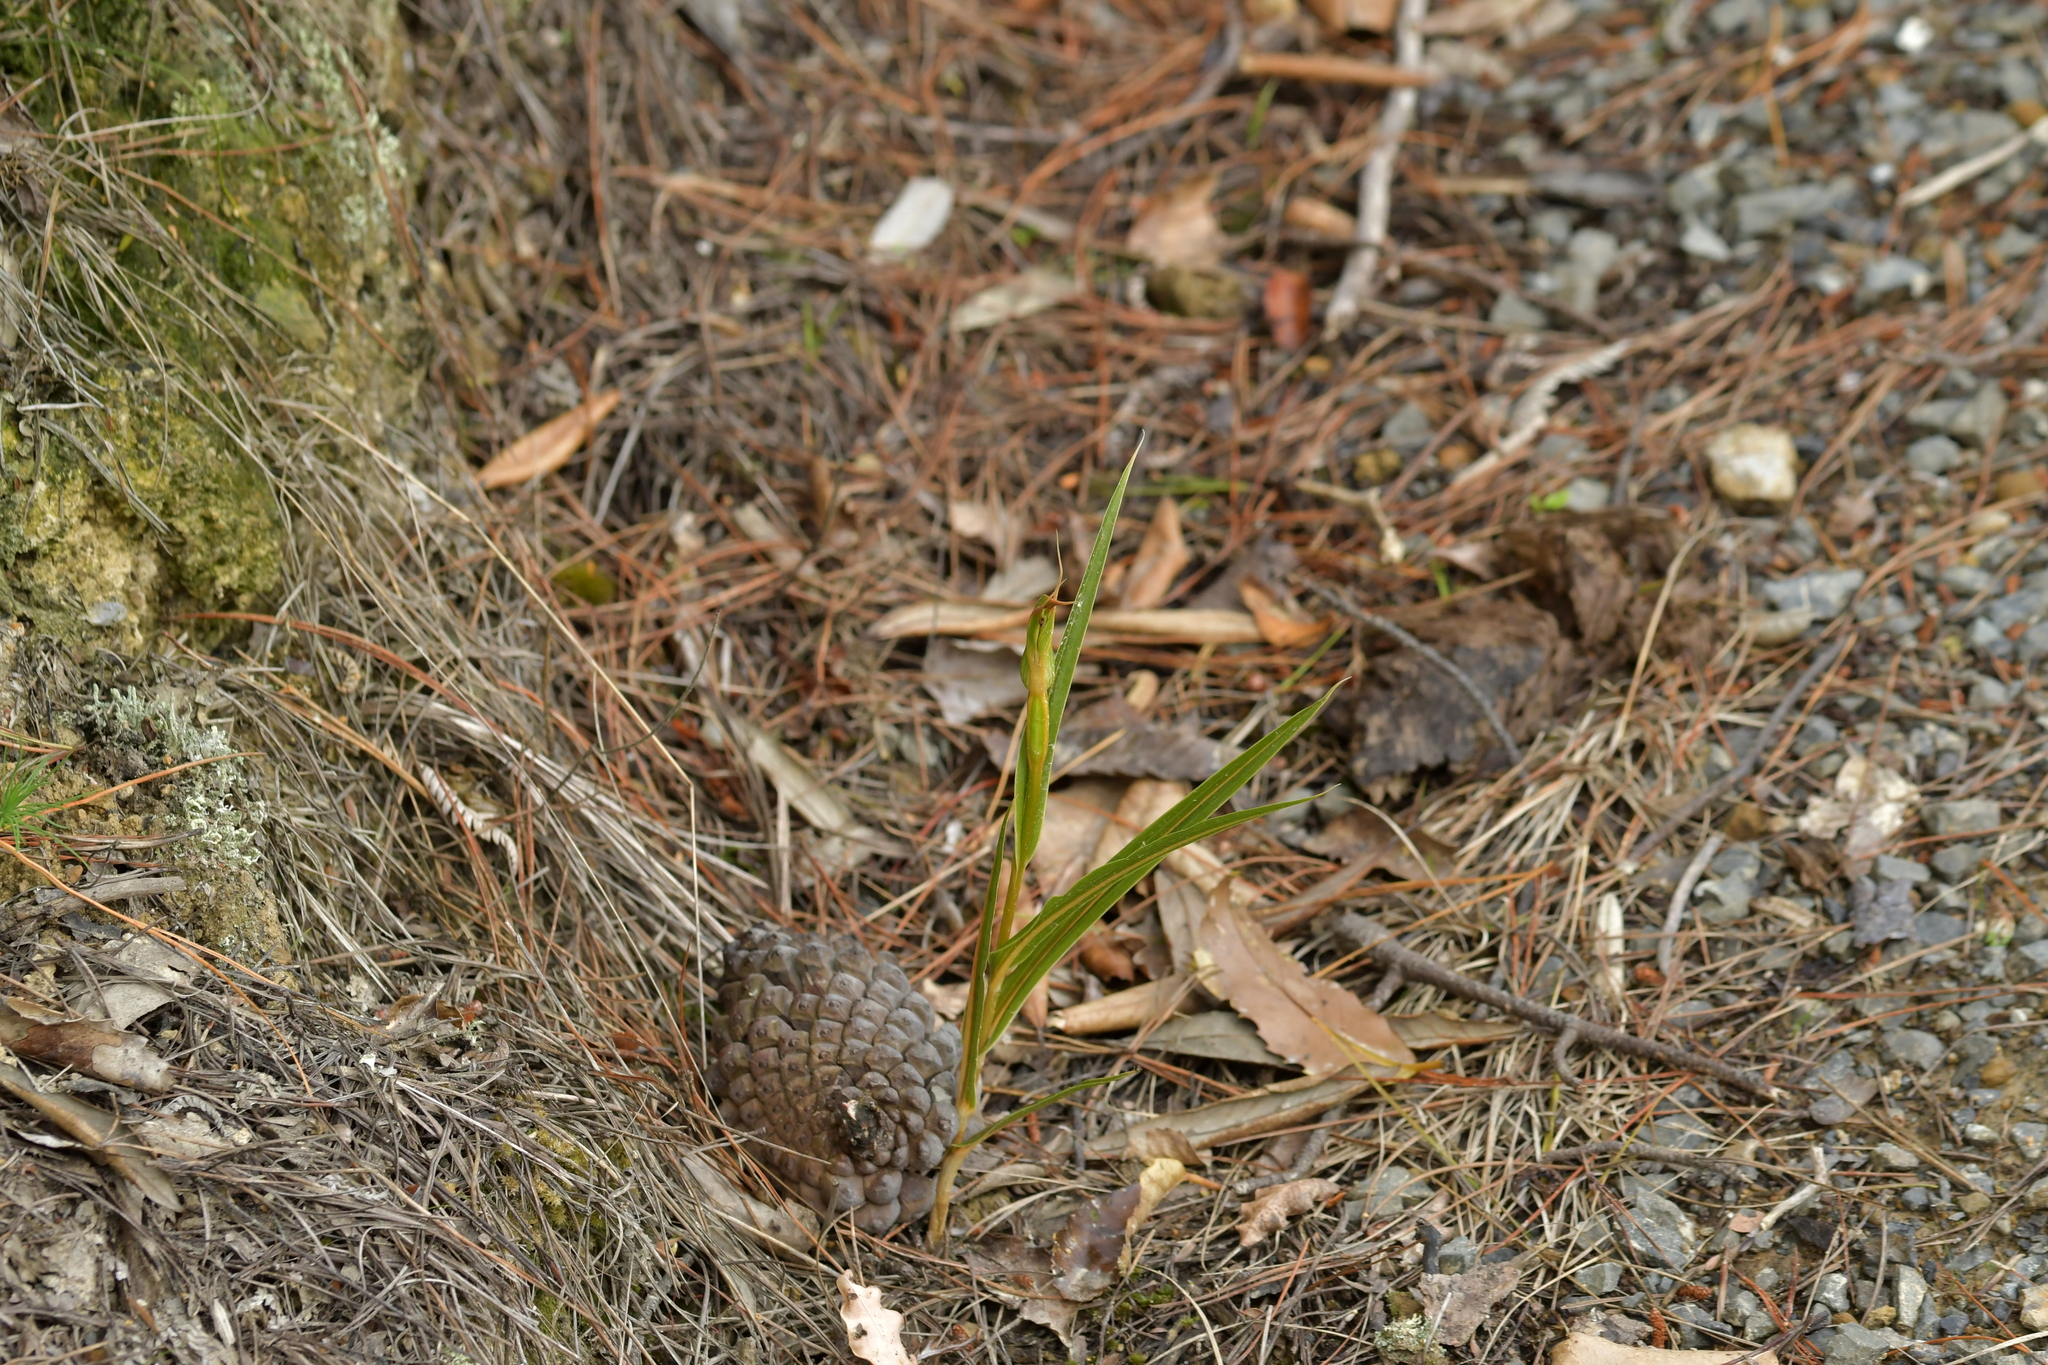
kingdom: Plantae
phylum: Tracheophyta
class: Liliopsida
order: Asparagales
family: Orchidaceae
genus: Pterostylis
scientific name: Pterostylis cardiostigma
